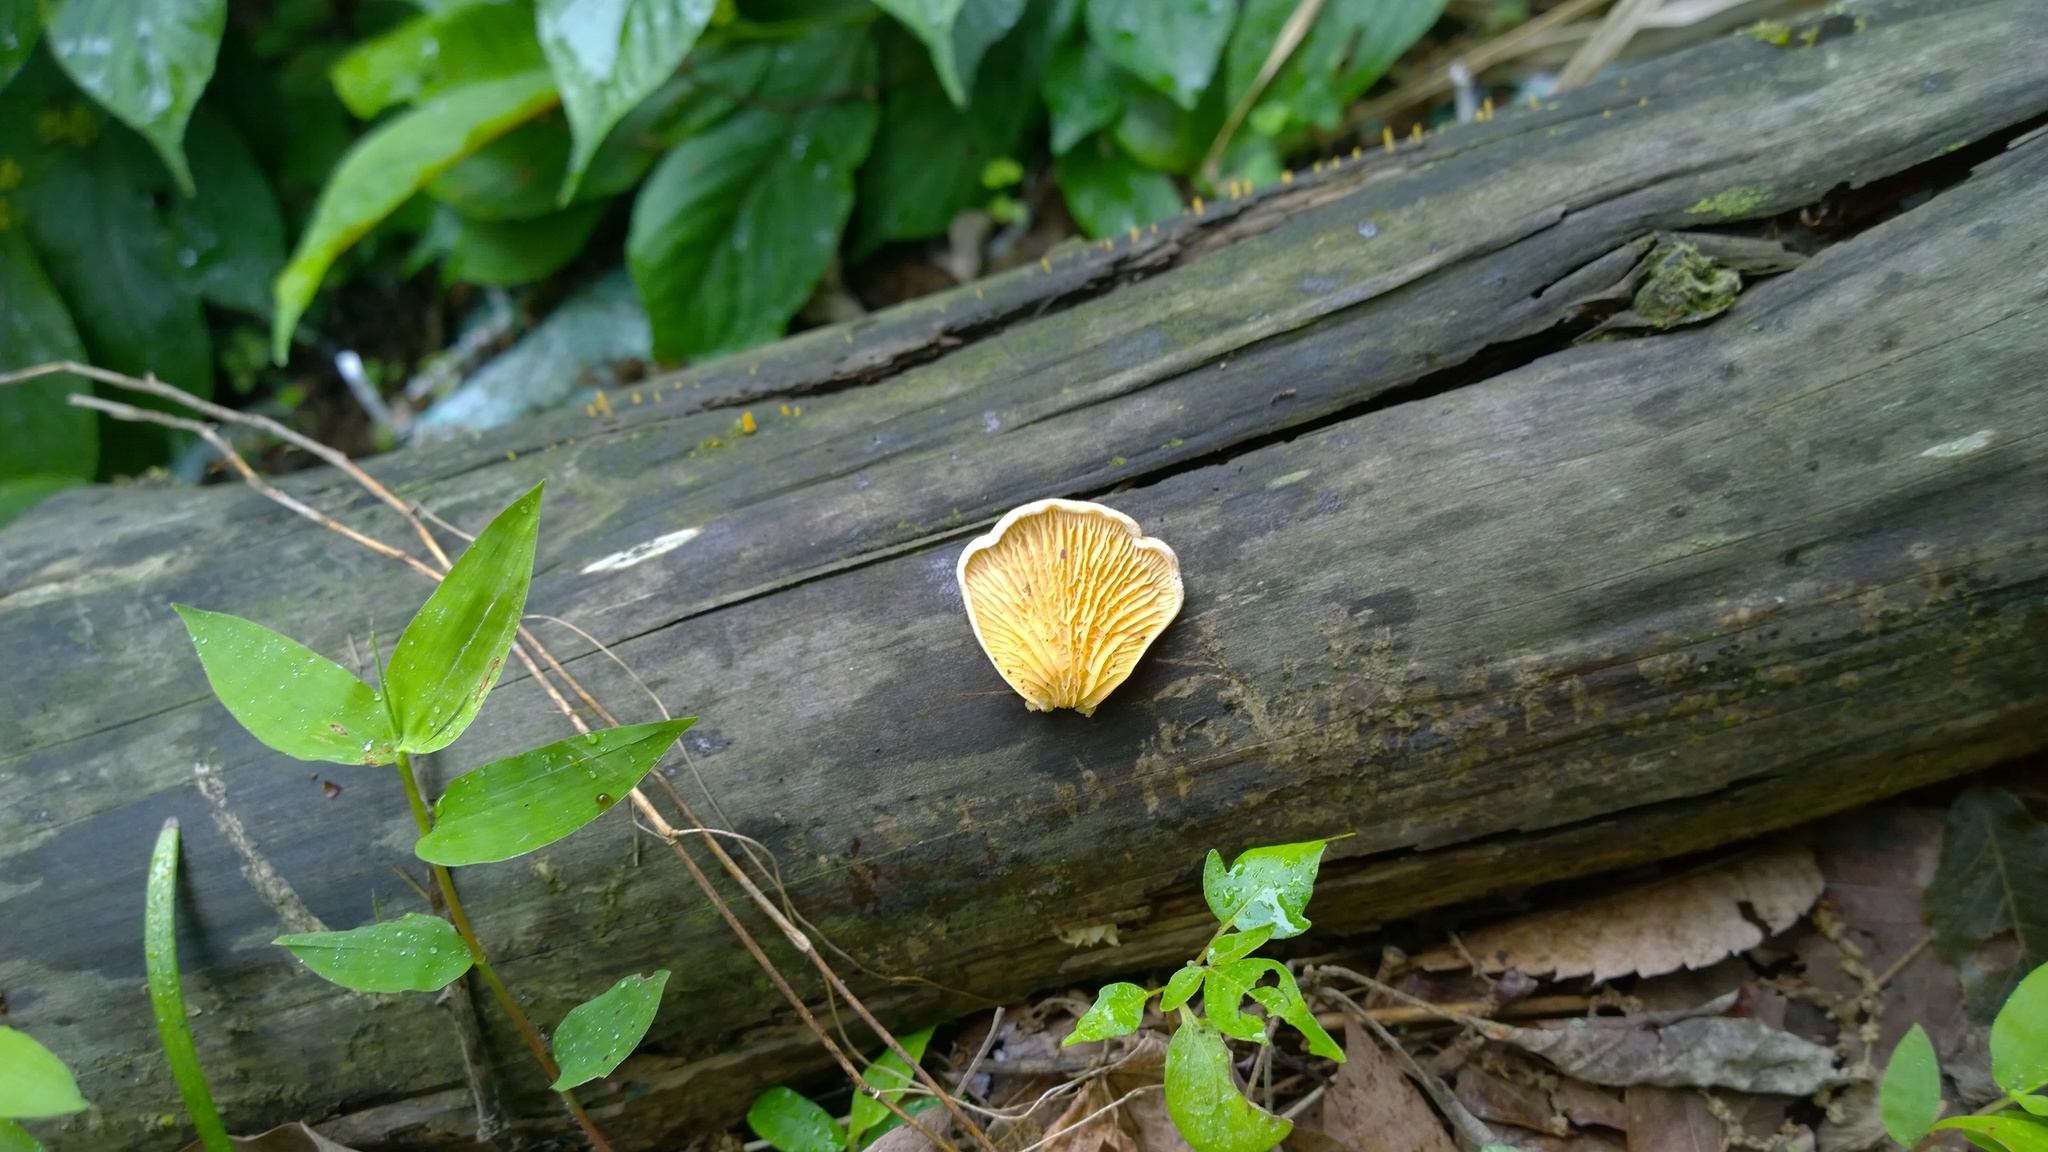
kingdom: Fungi
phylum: Basidiomycota
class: Agaricomycetes
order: Boletales
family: Tapinellaceae
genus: Tapinella
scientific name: Tapinella panuoides
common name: Oyster rollrim
